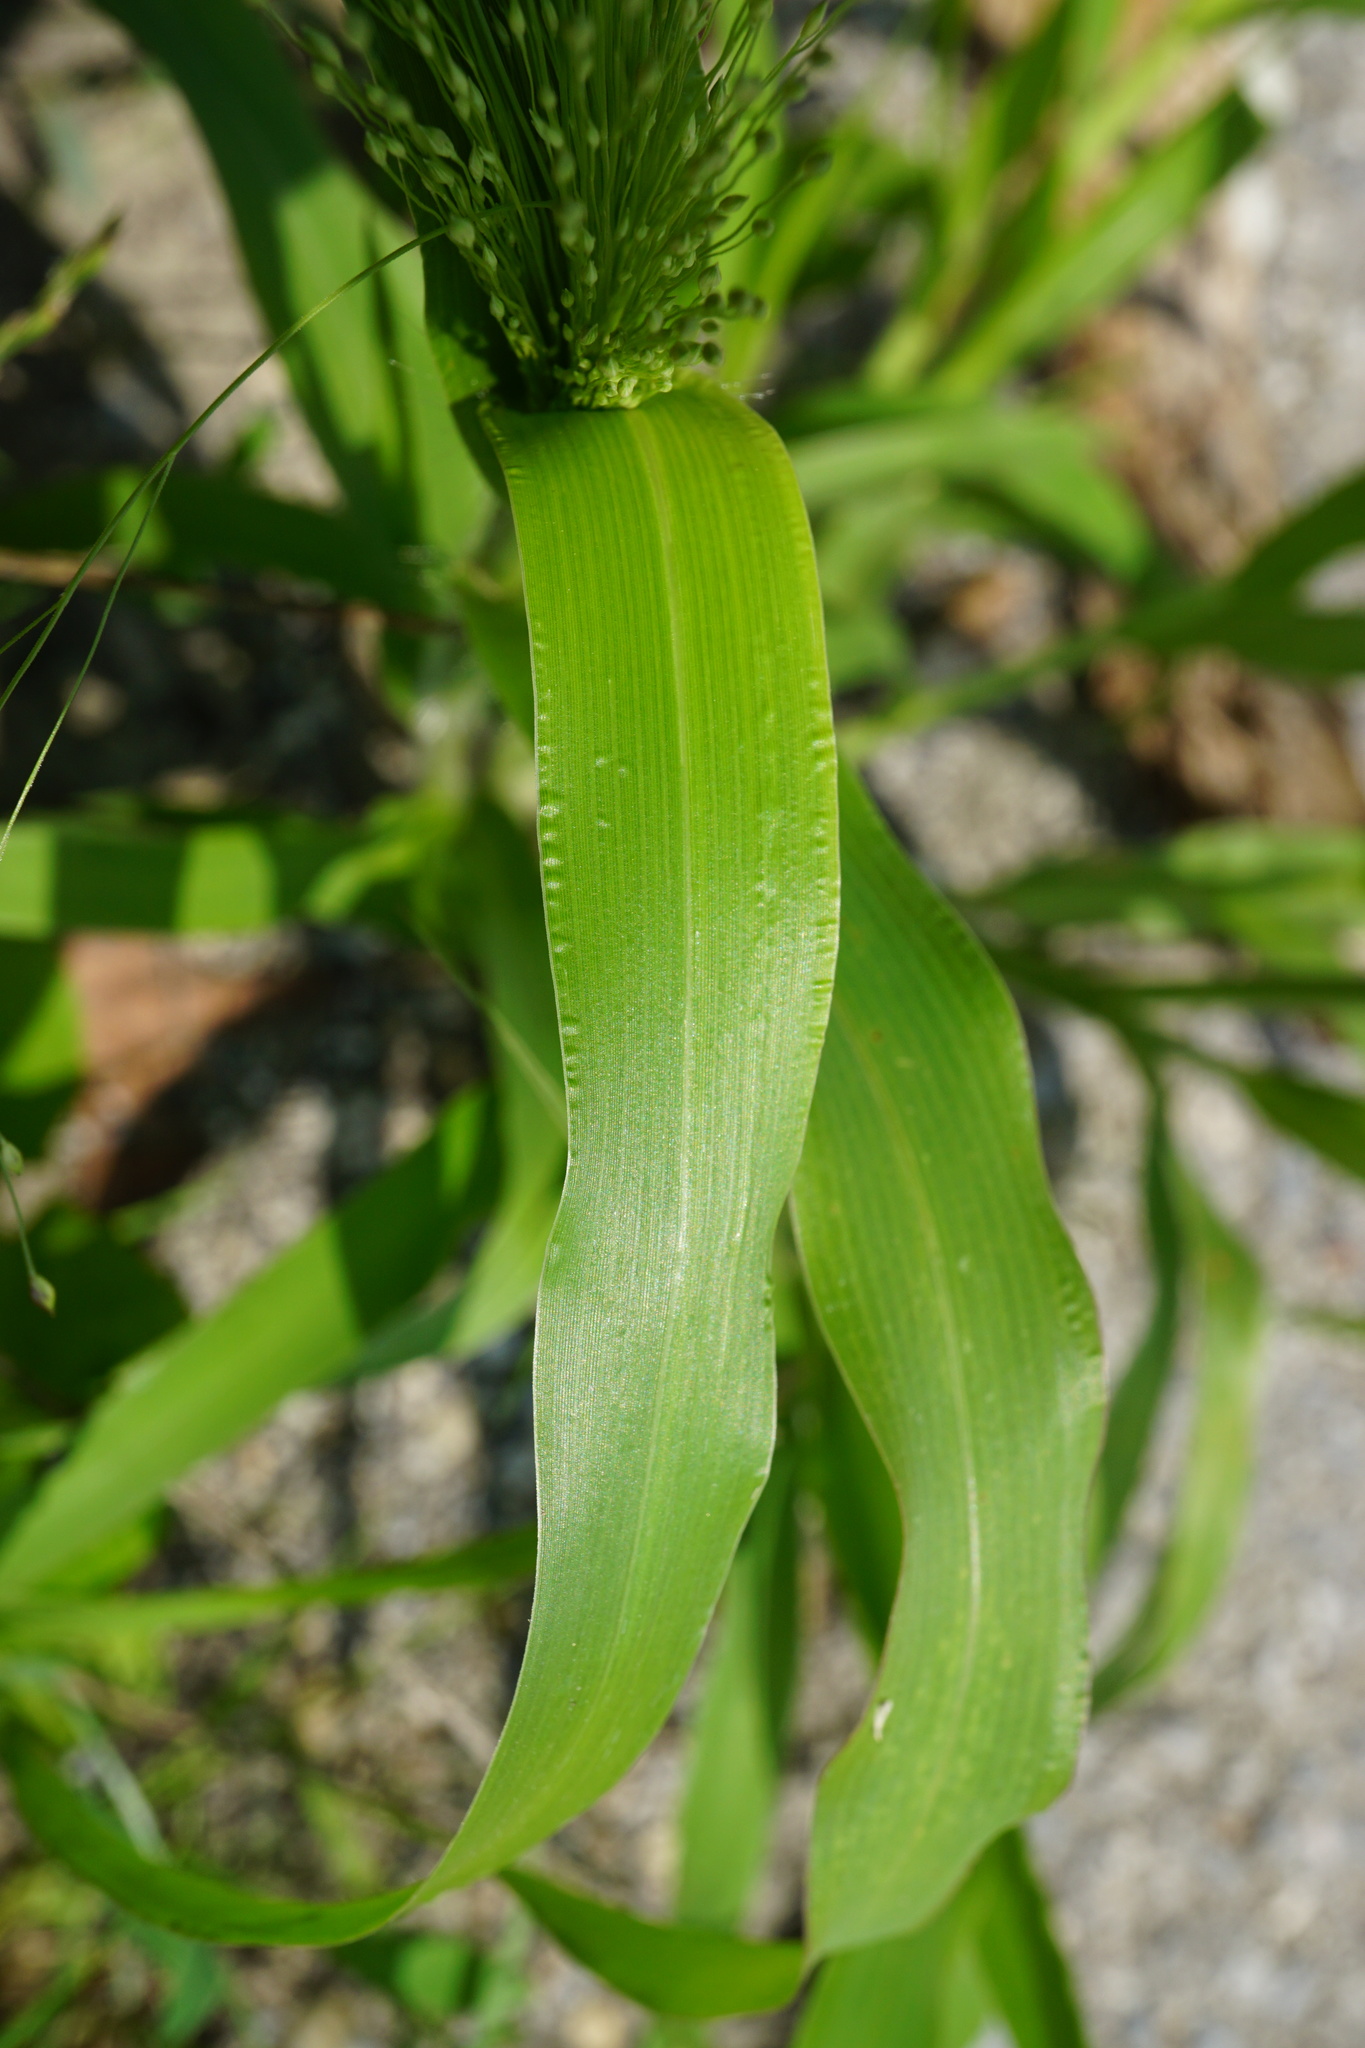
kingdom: Plantae
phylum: Tracheophyta
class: Liliopsida
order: Poales
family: Poaceae
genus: Panicum
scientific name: Panicum capillare
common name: Witch-grass
